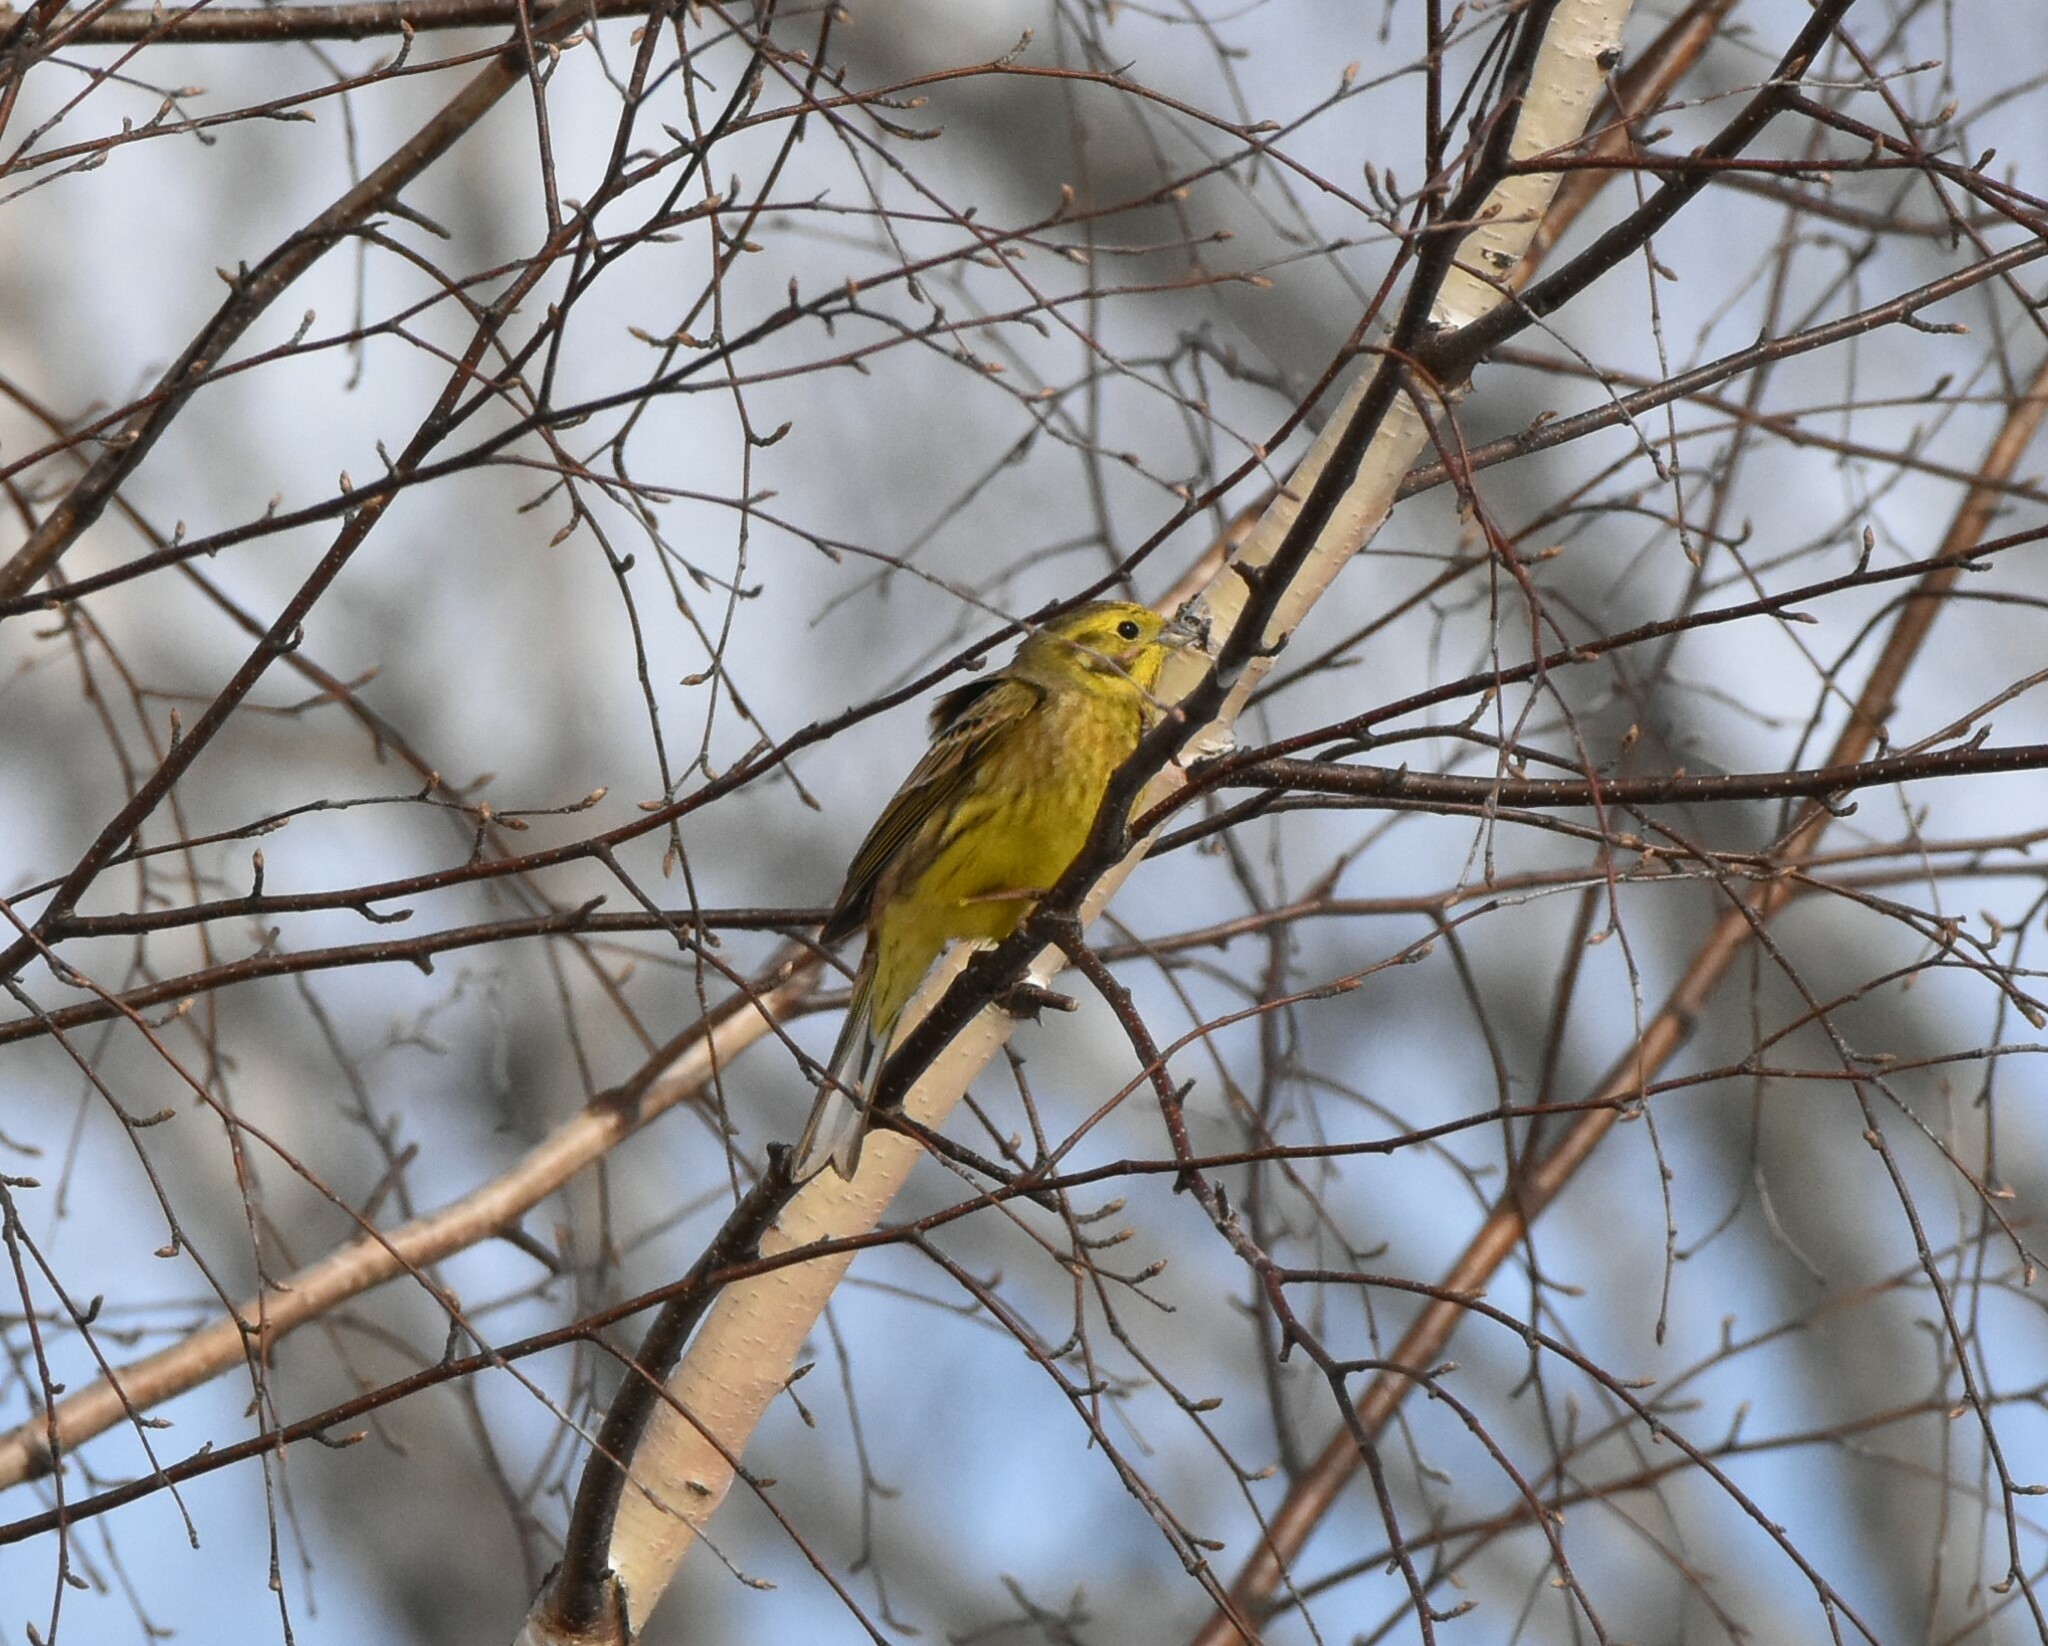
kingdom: Animalia
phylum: Chordata
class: Aves
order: Passeriformes
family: Emberizidae
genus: Emberiza
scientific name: Emberiza citrinella
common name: Yellowhammer
